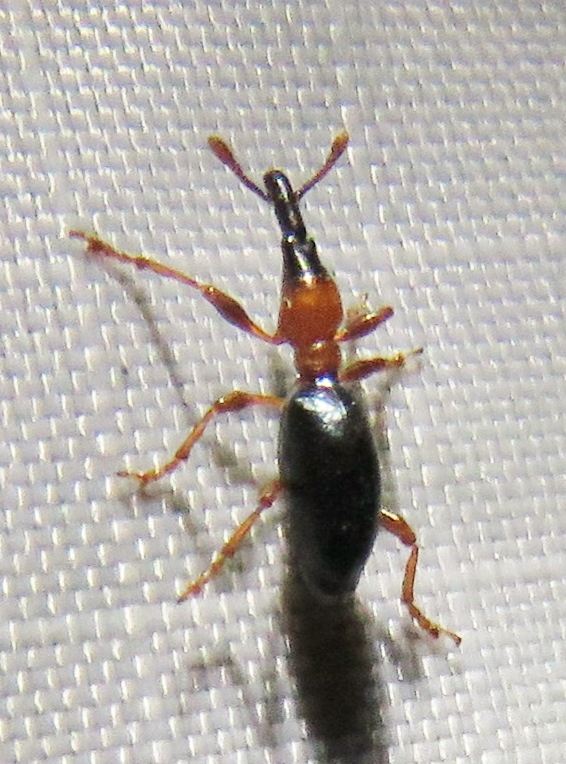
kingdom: Animalia
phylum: Arthropoda
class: Insecta
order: Coleoptera
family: Brentidae
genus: Cylas
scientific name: Cylas formicarius
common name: Sweetpotato weevil
